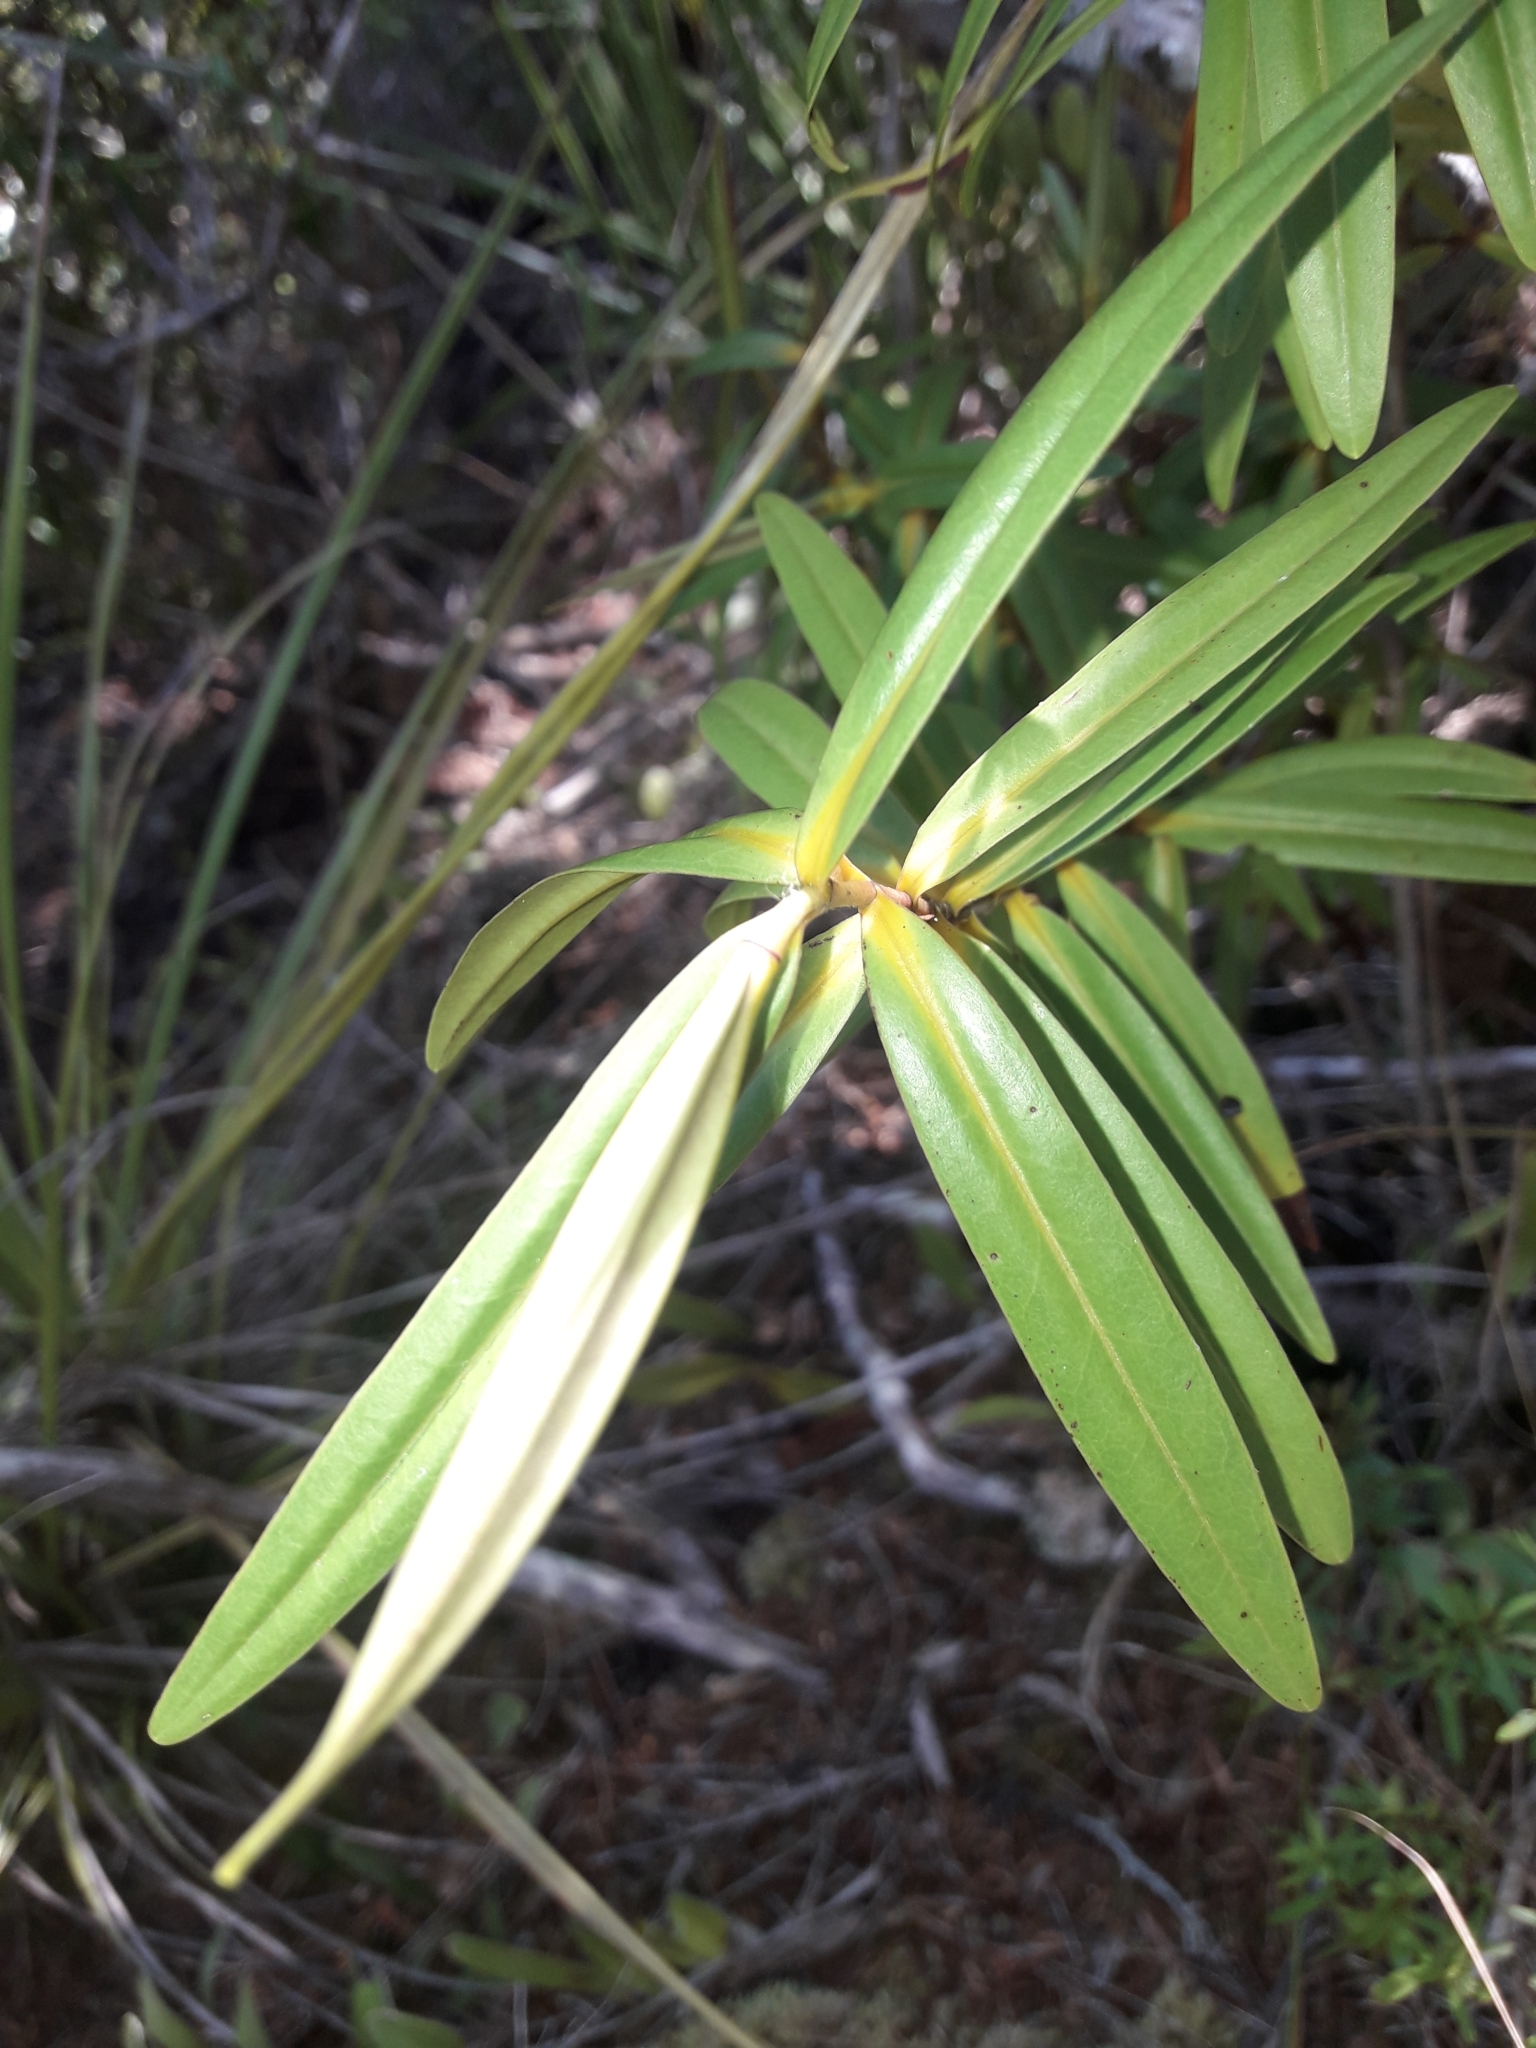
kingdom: Plantae
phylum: Tracheophyta
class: Magnoliopsida
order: Lamiales
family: Plantaginaceae
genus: Veronica
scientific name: Veronica ligustrifolia
